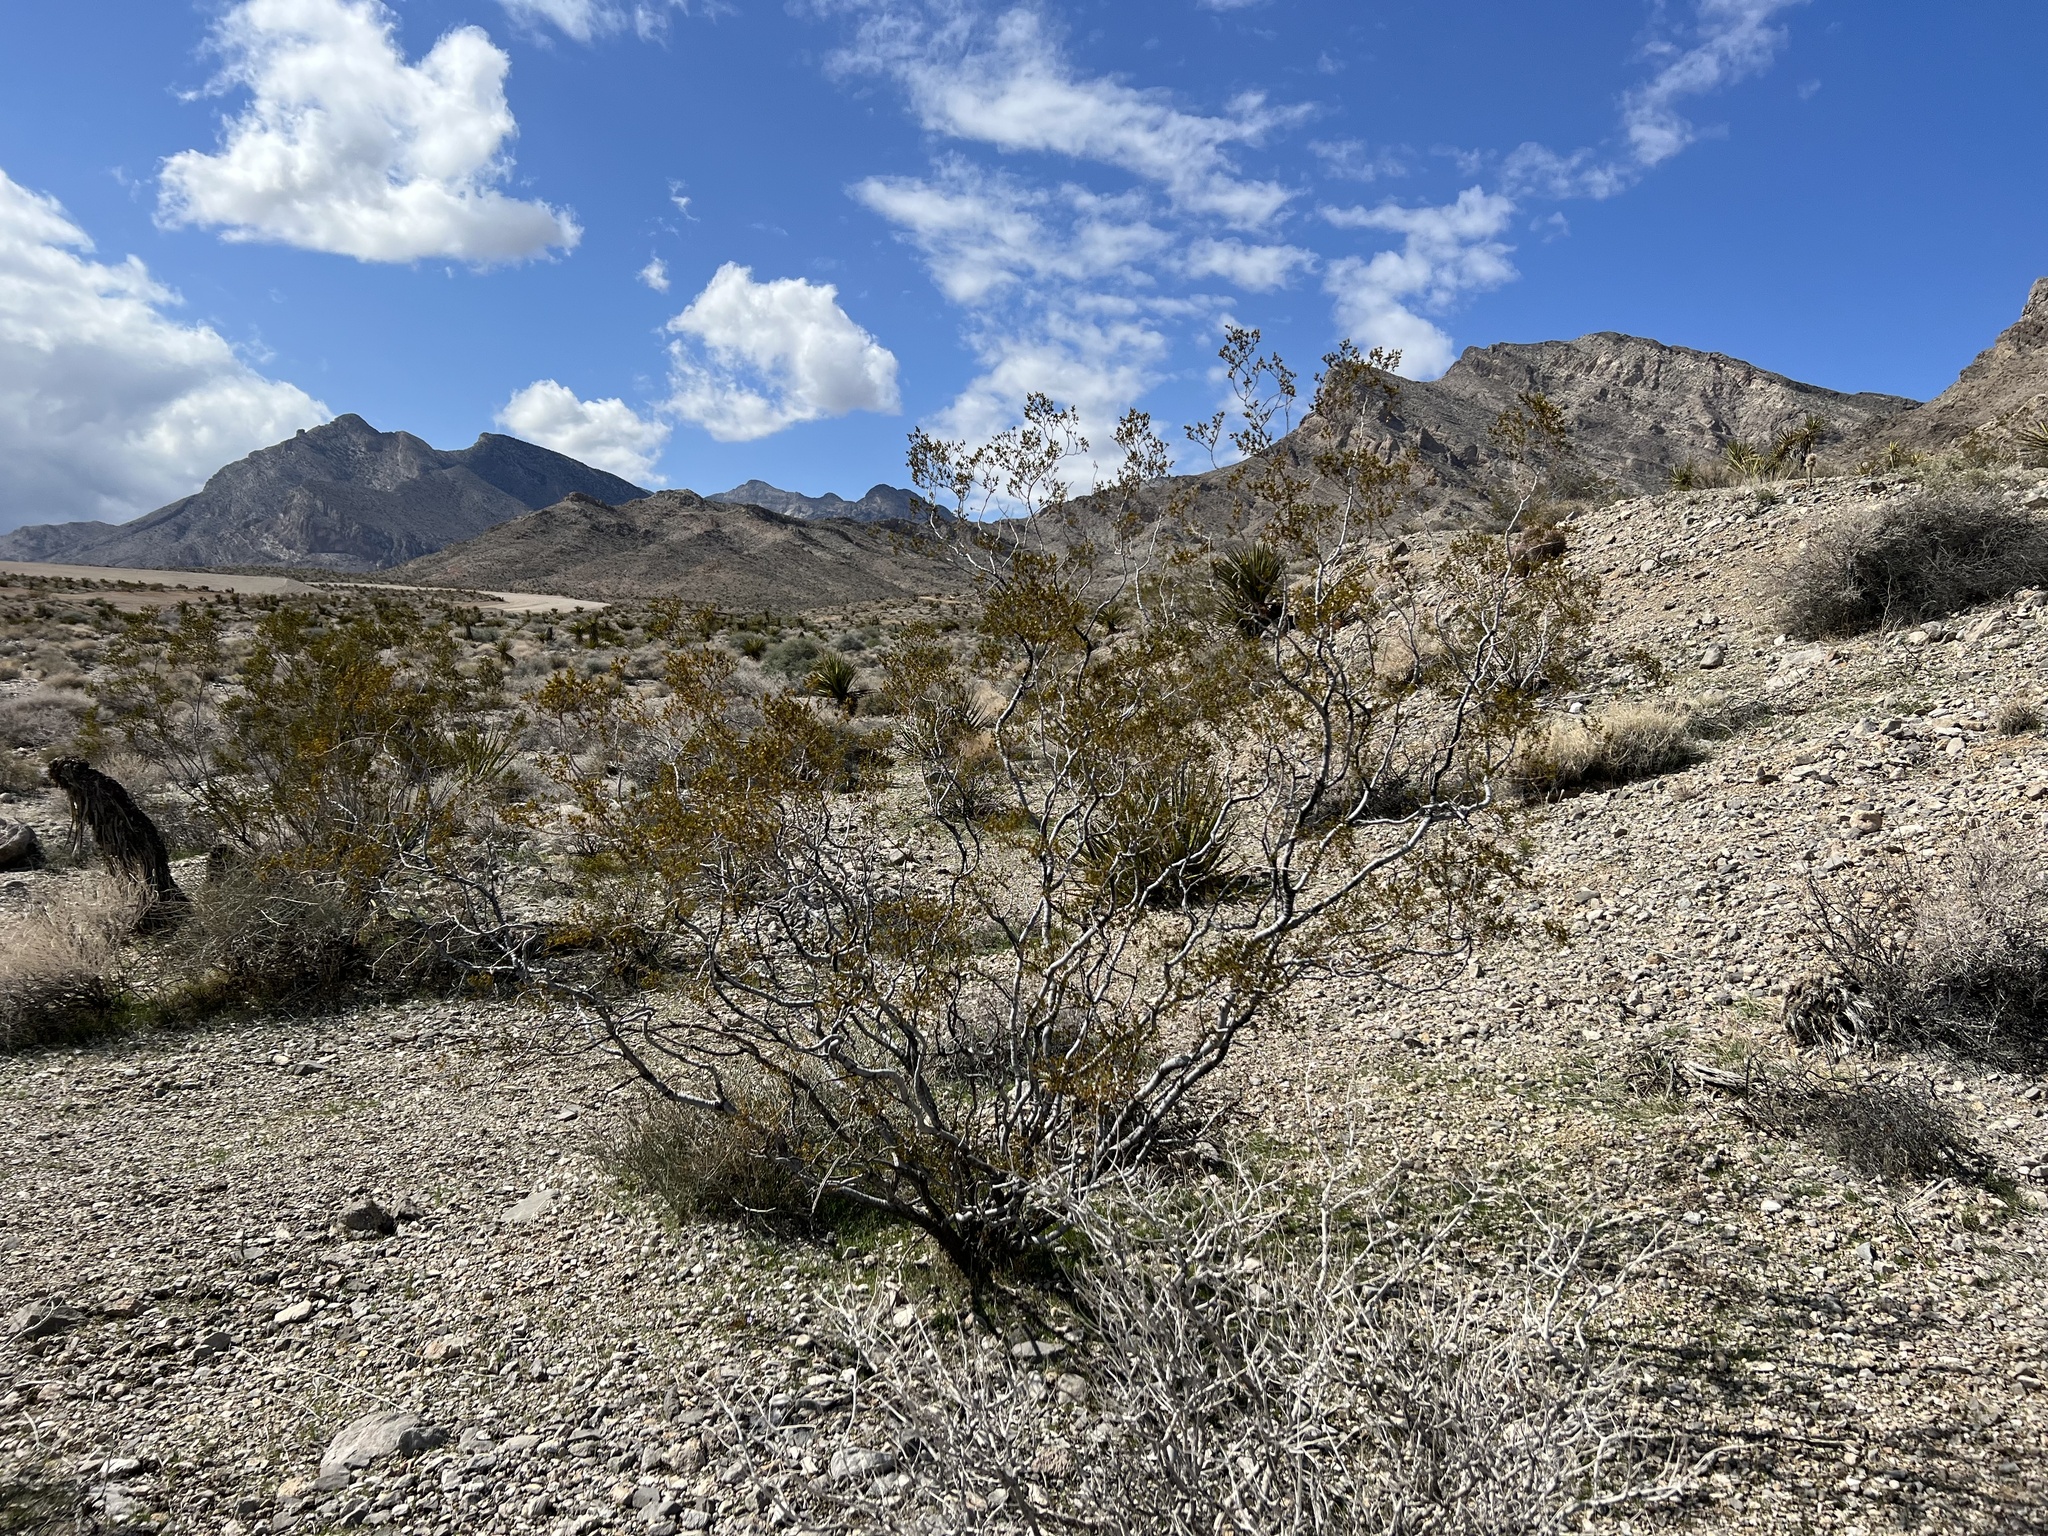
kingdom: Plantae
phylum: Tracheophyta
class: Magnoliopsida
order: Zygophyllales
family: Zygophyllaceae
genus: Larrea
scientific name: Larrea tridentata
